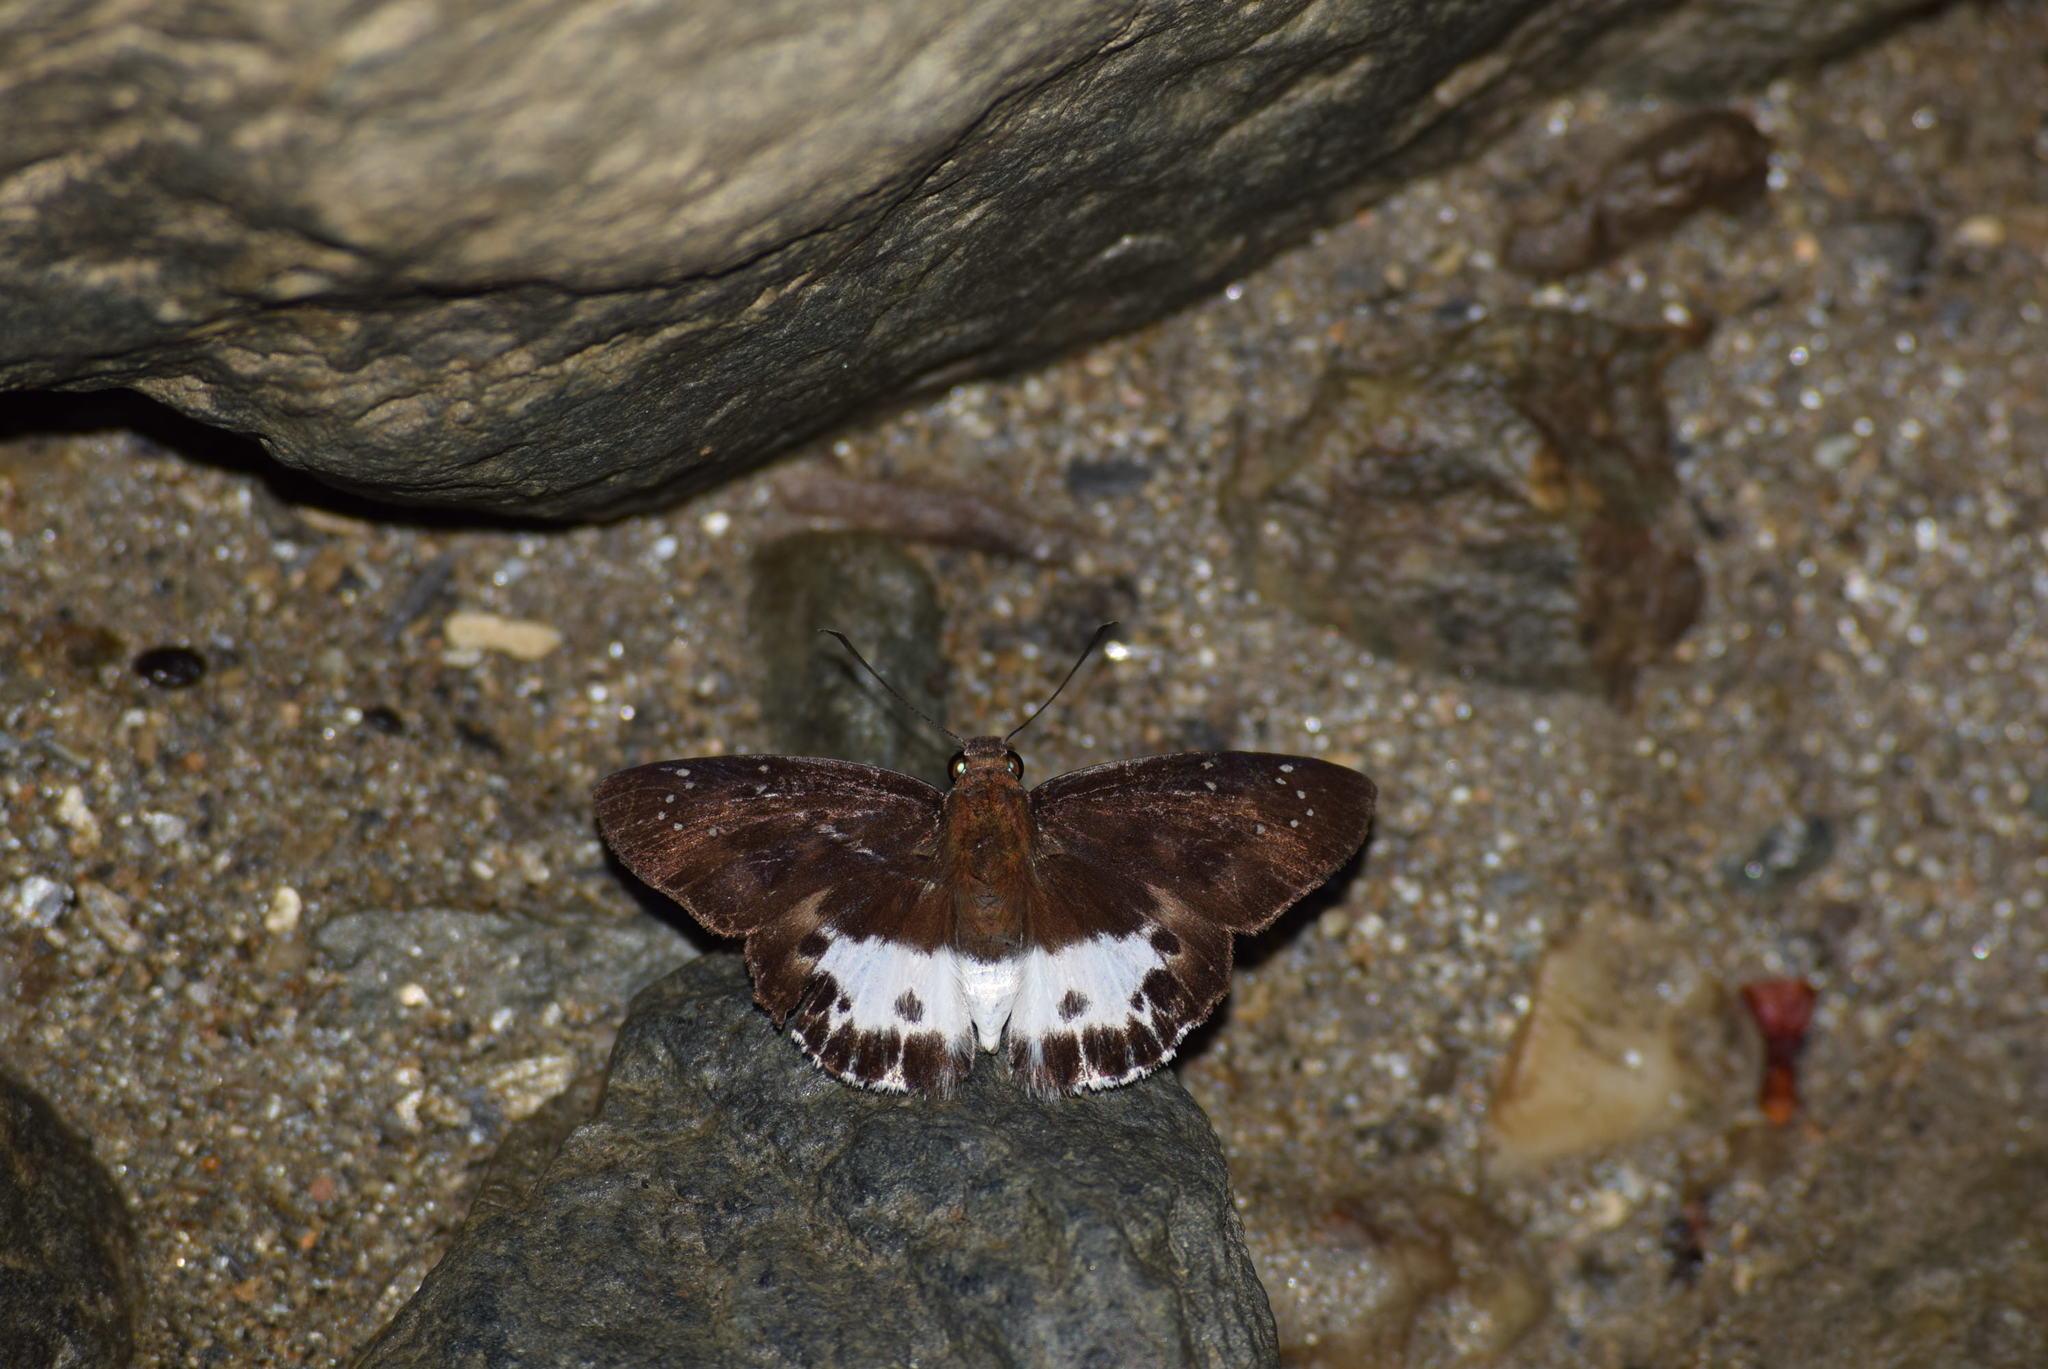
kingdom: Animalia
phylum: Arthropoda
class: Insecta
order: Lepidoptera
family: Hesperiidae
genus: Tagiades
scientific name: Tagiades litigiosa
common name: Water snow flat
